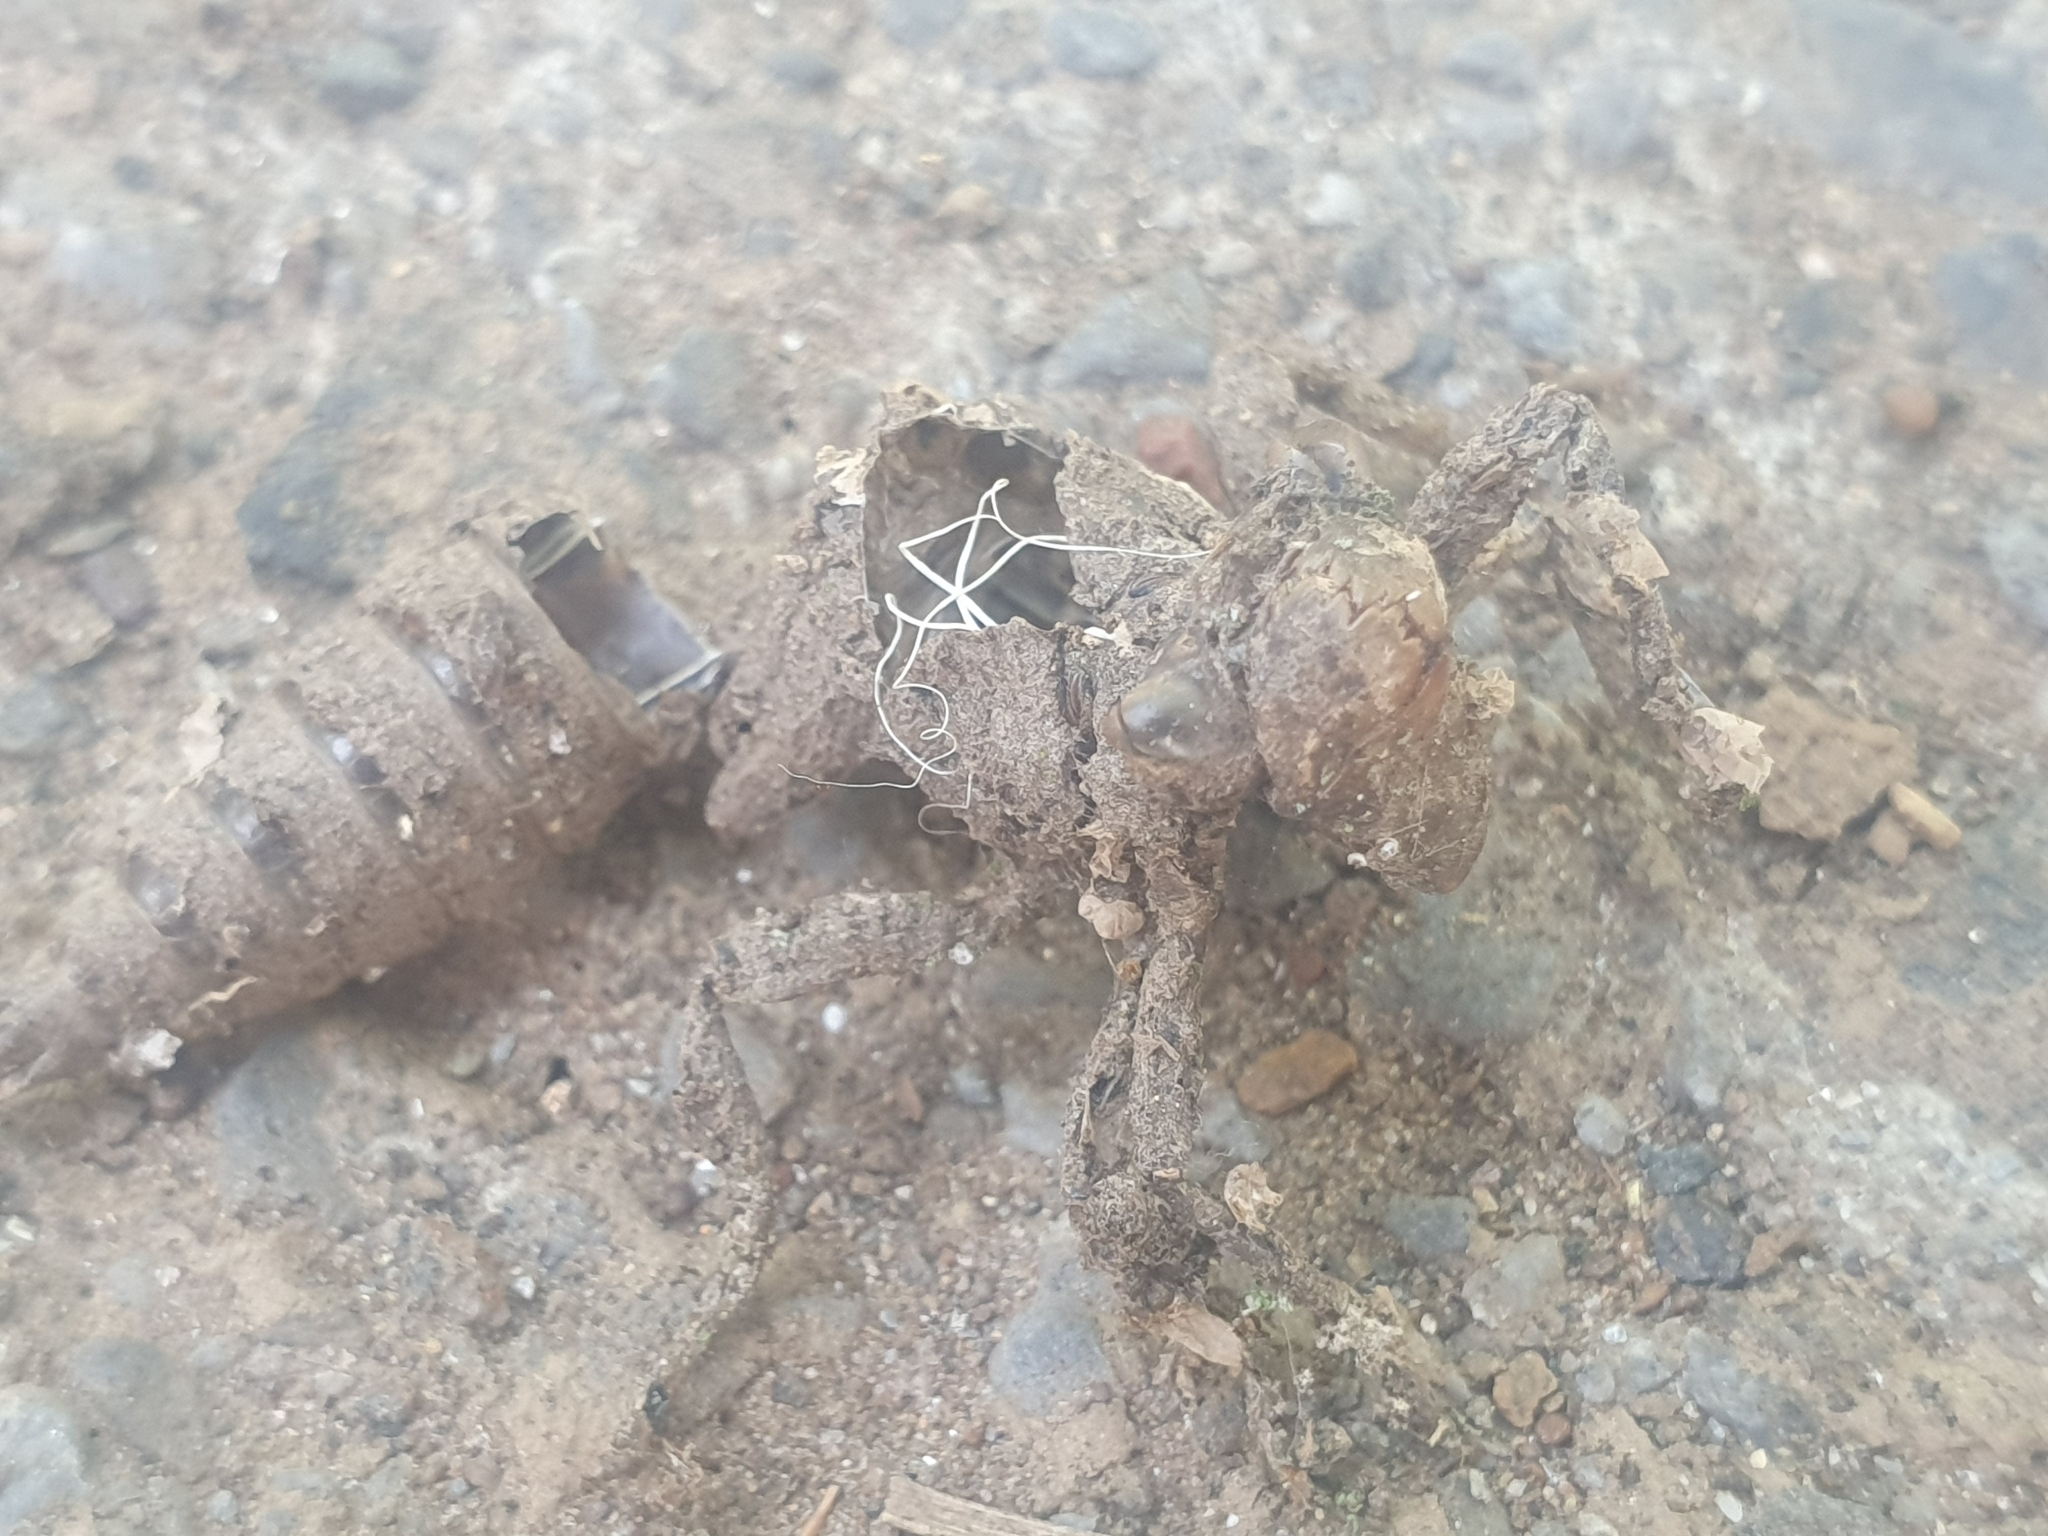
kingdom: Animalia
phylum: Arthropoda
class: Insecta
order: Odonata
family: Cordulegastridae
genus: Cordulegaster
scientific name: Cordulegaster boltonii
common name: Golden-ringed dragonfly
